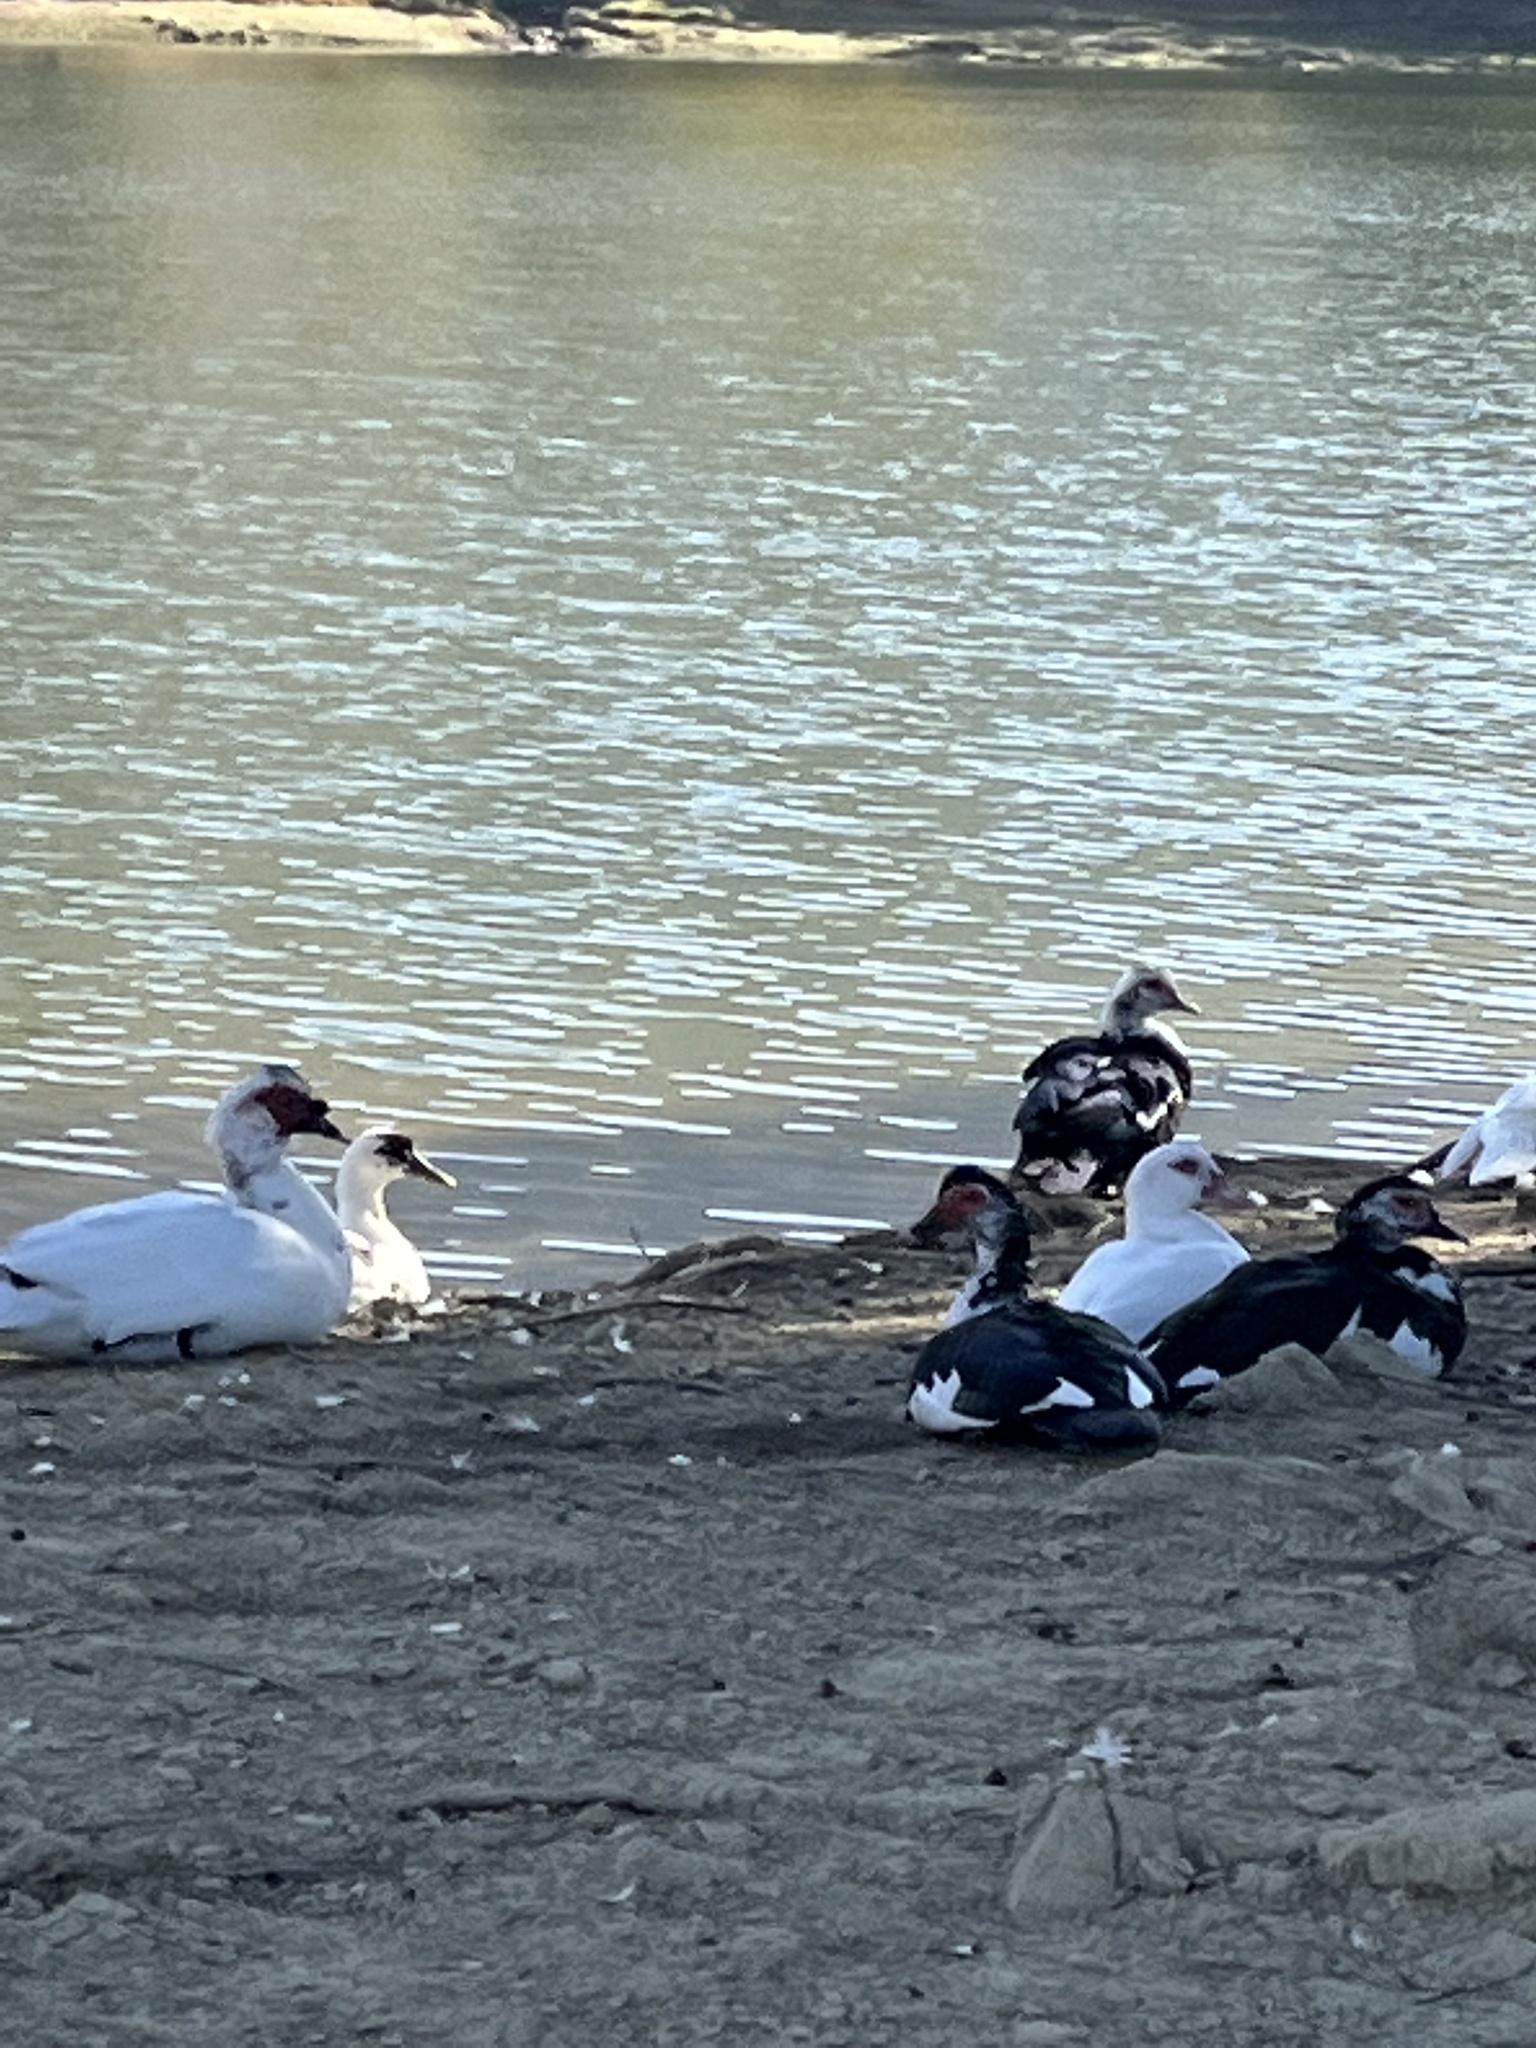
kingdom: Animalia
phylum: Chordata
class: Aves
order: Anseriformes
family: Anatidae
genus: Cairina
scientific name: Cairina moschata
